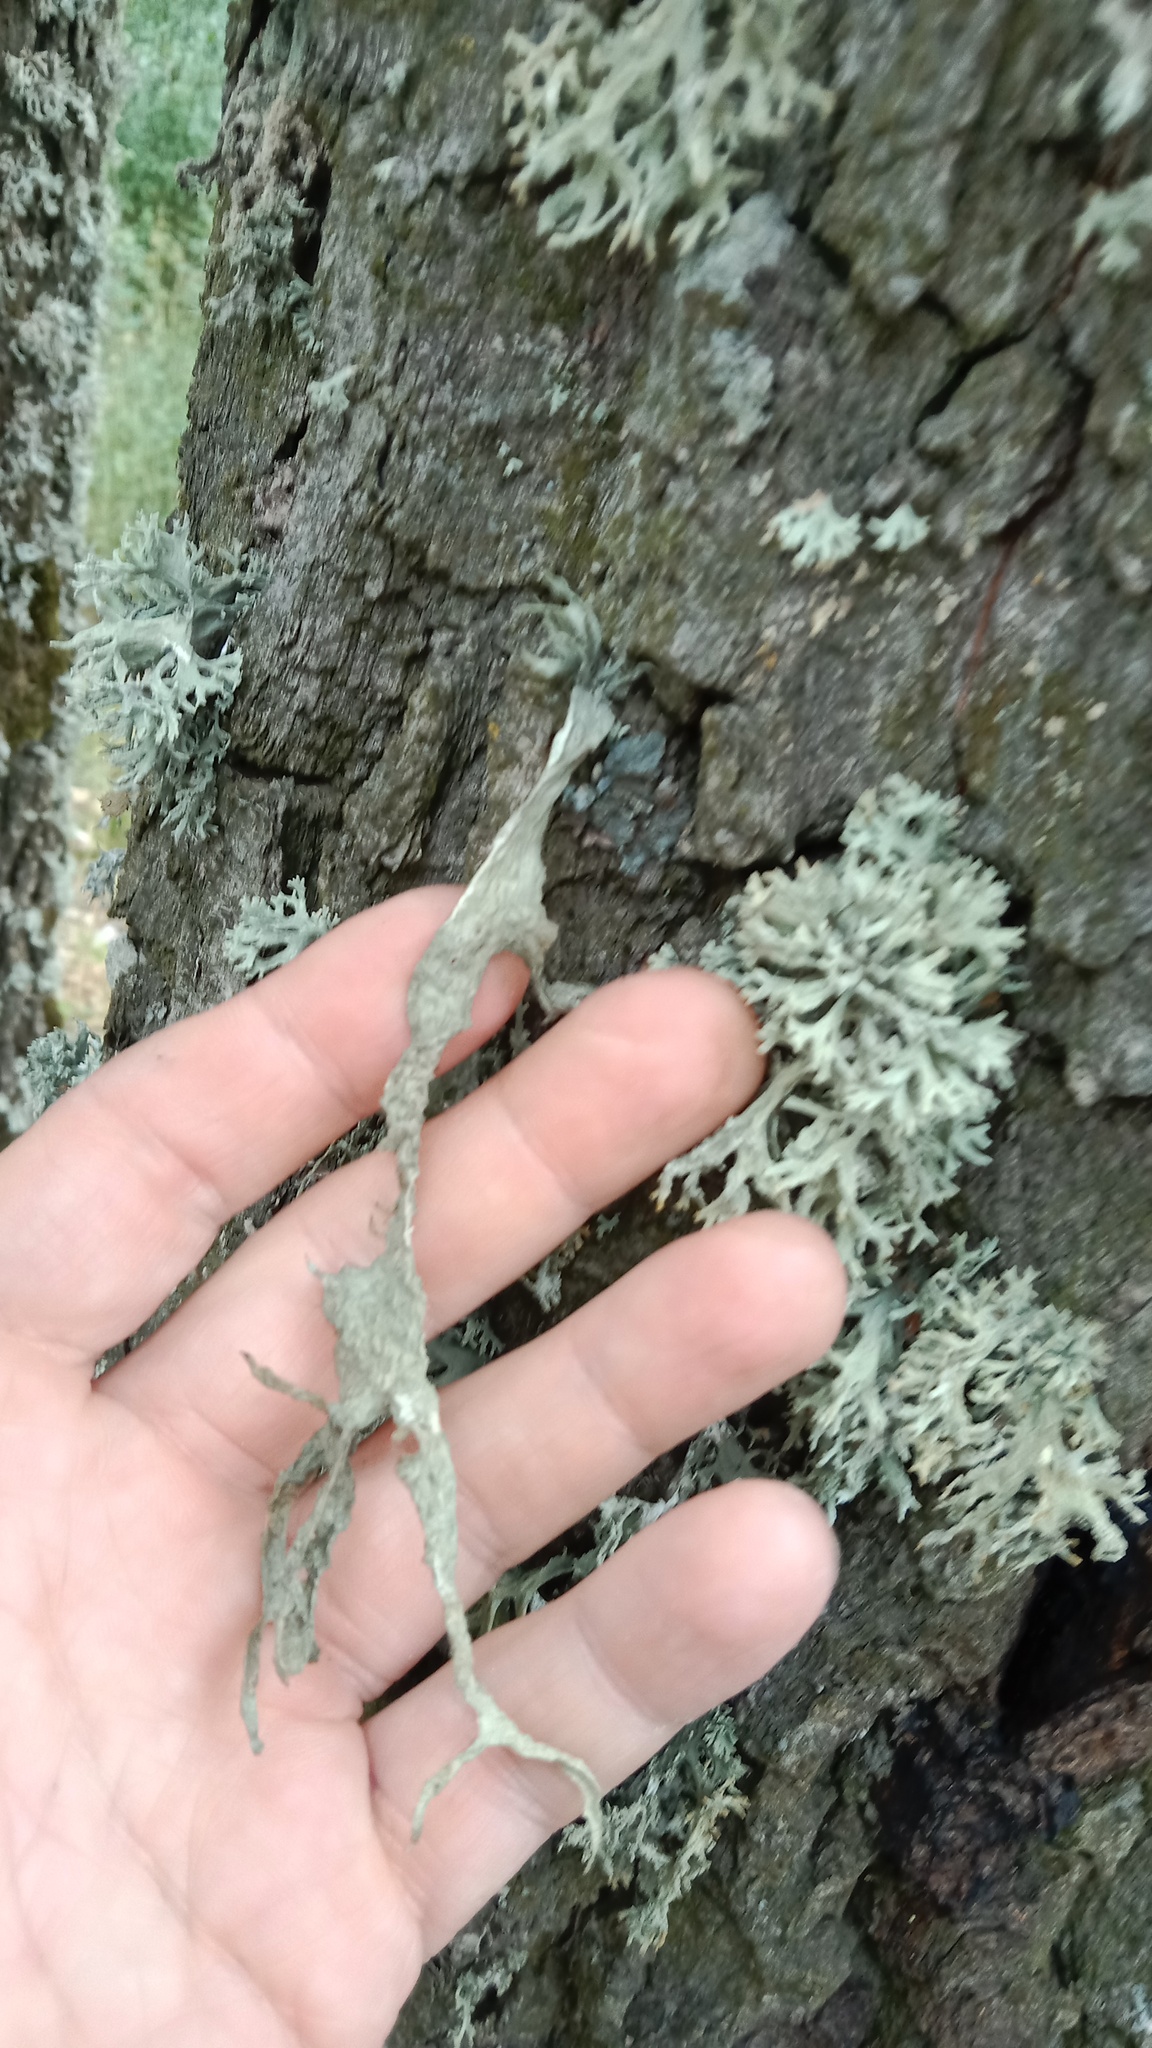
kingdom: Fungi
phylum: Ascomycota
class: Lecanoromycetes
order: Lecanorales
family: Ramalinaceae
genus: Ramalina
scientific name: Ramalina fraxinea
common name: Cartilage lichen
